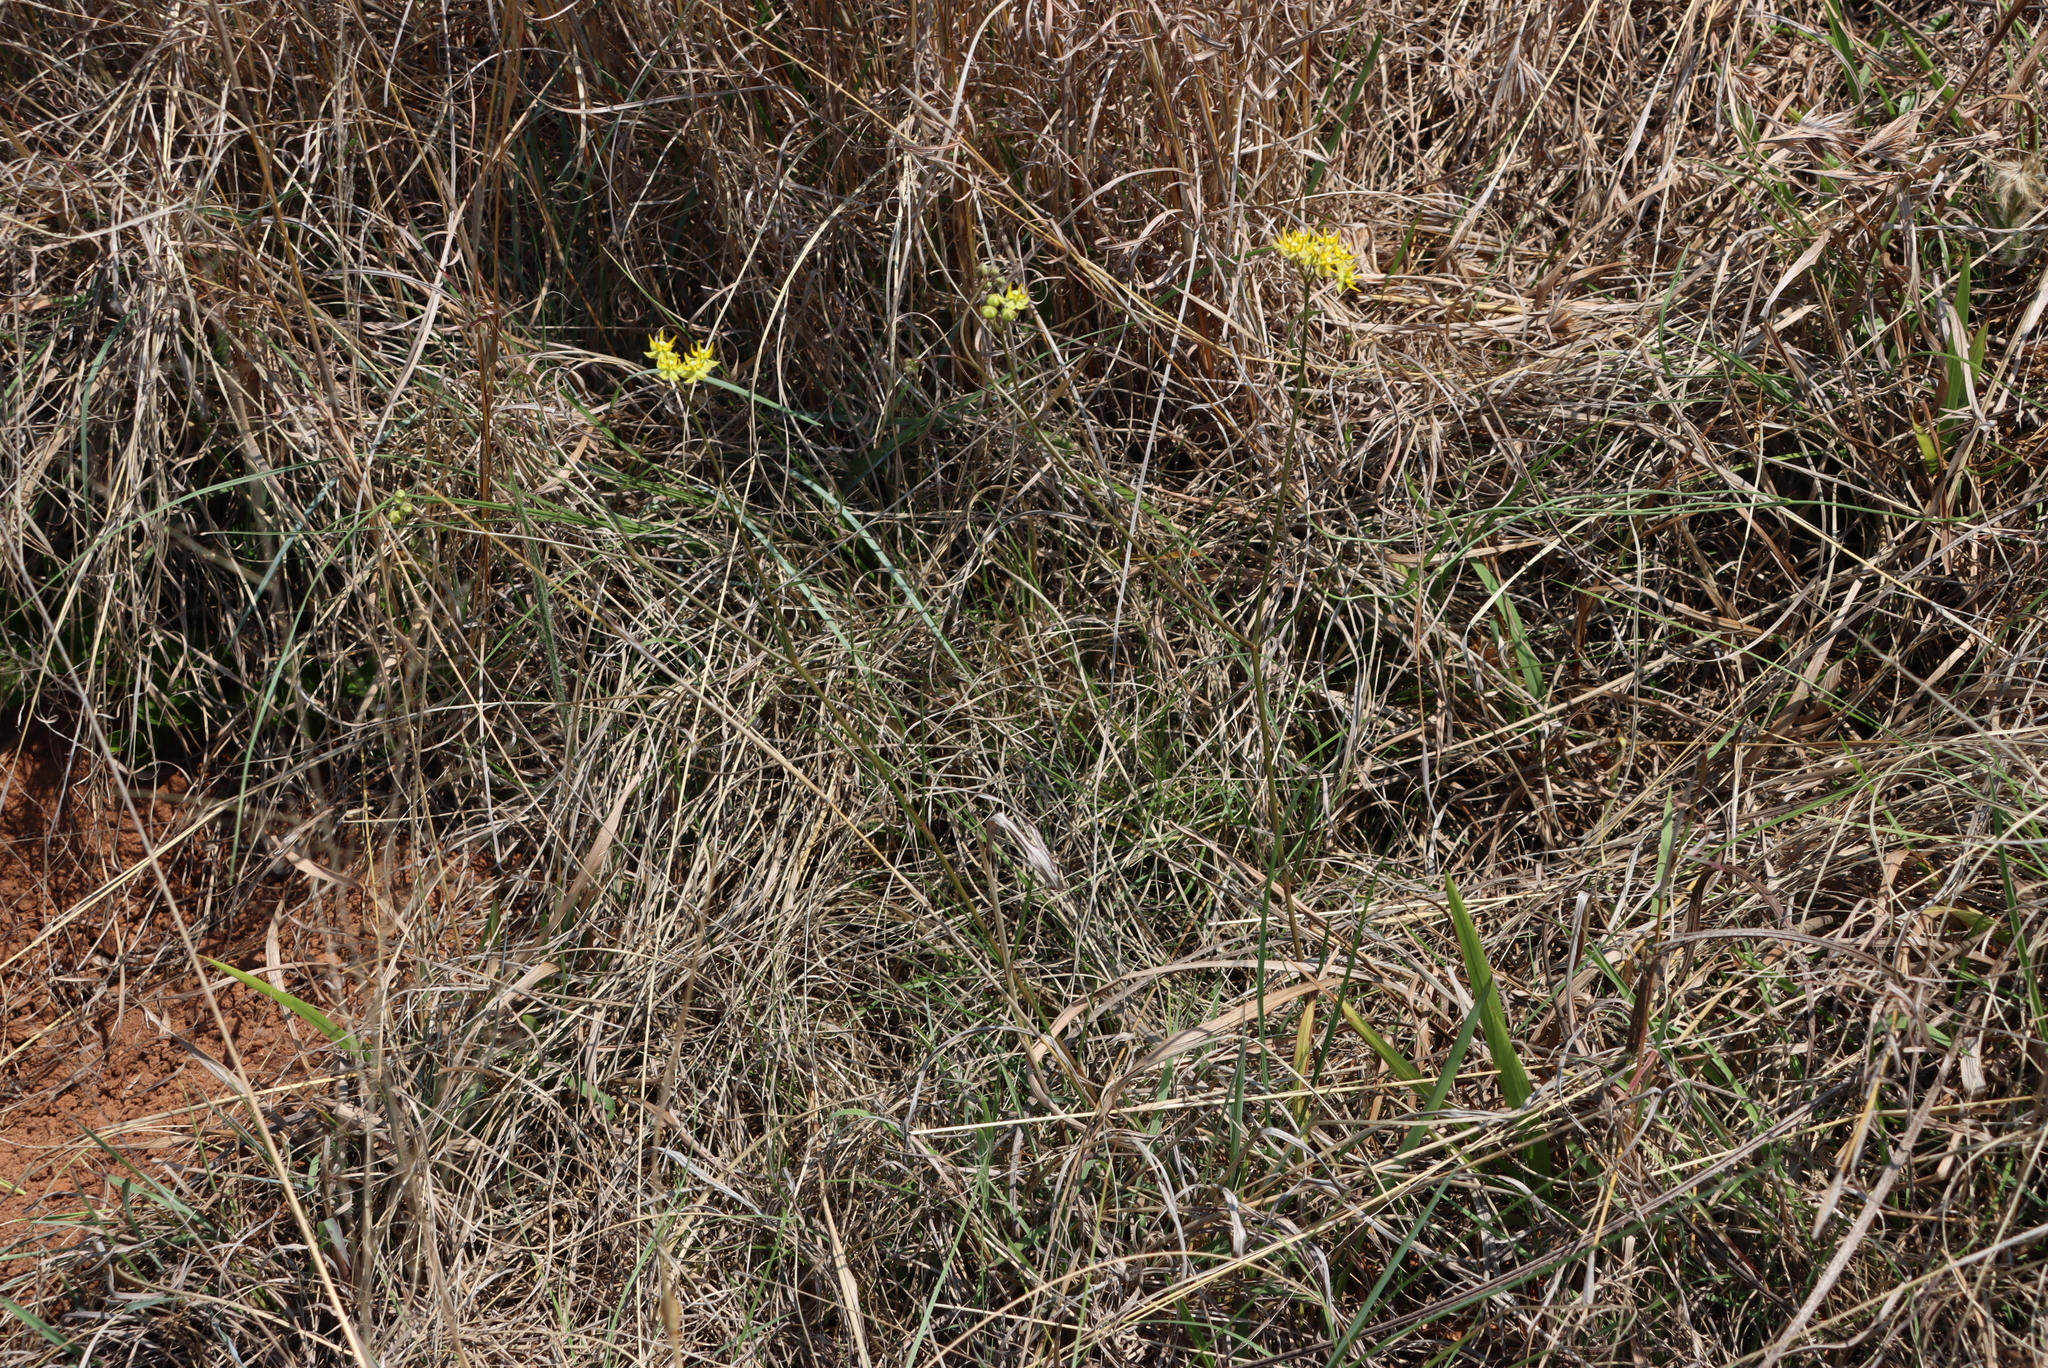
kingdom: Plantae
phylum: Tracheophyta
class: Magnoliopsida
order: Gentianales
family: Apocynaceae
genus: Asclepias
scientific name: Asclepias aurea
